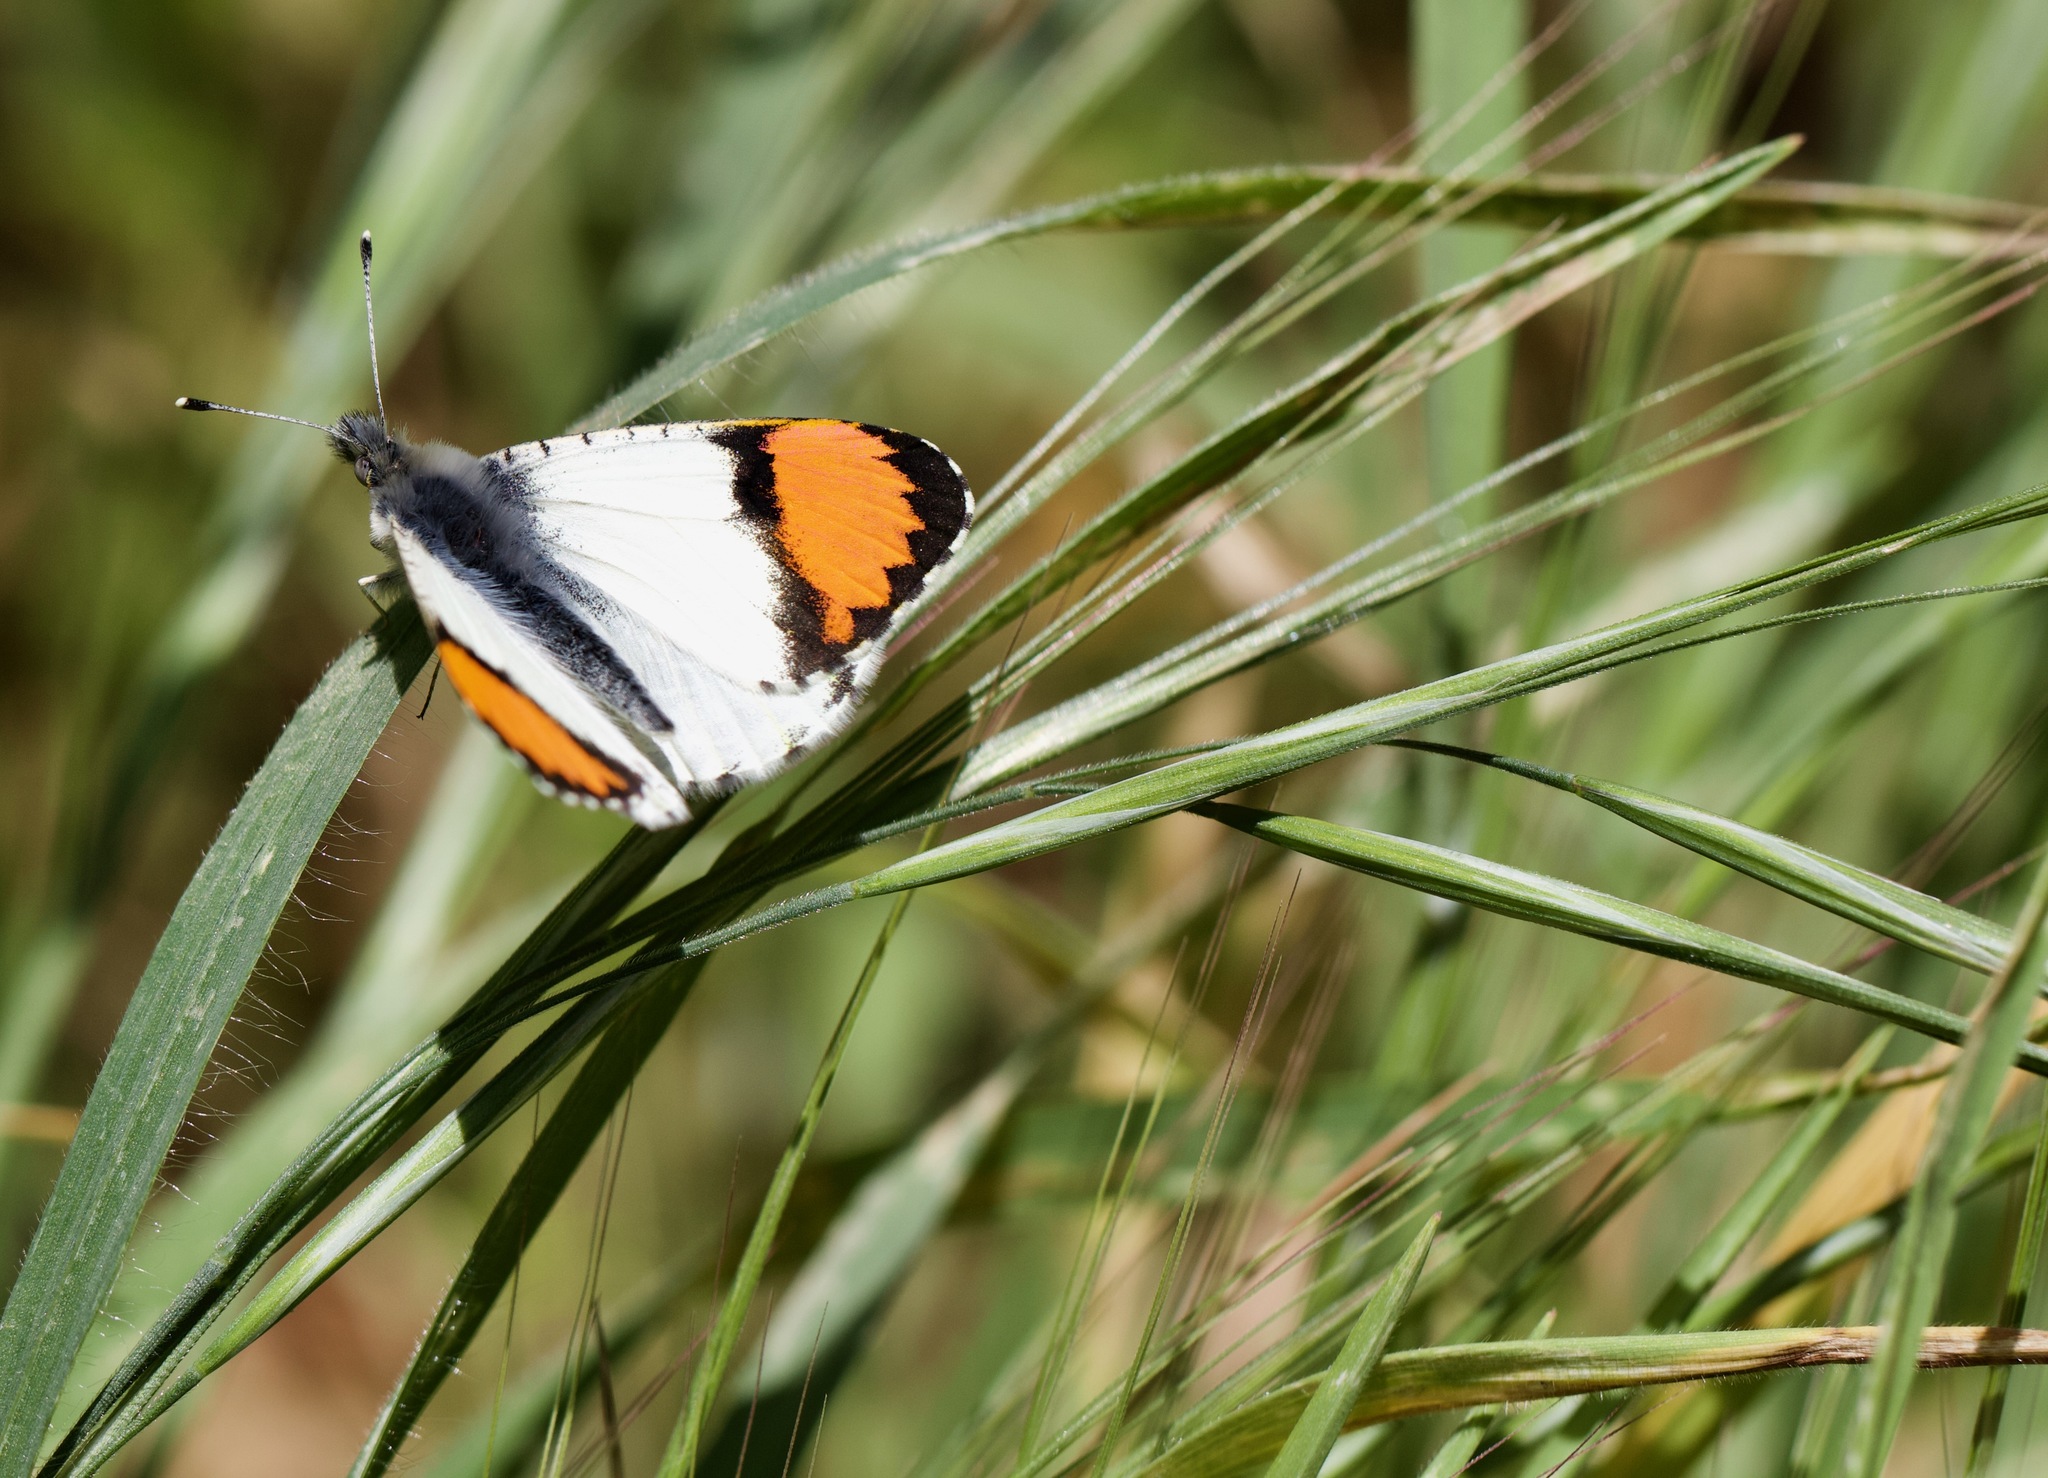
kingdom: Animalia
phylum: Arthropoda
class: Insecta
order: Lepidoptera
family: Pieridae
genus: Anthocharis
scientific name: Anthocharis sara
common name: Sara's orangetip
